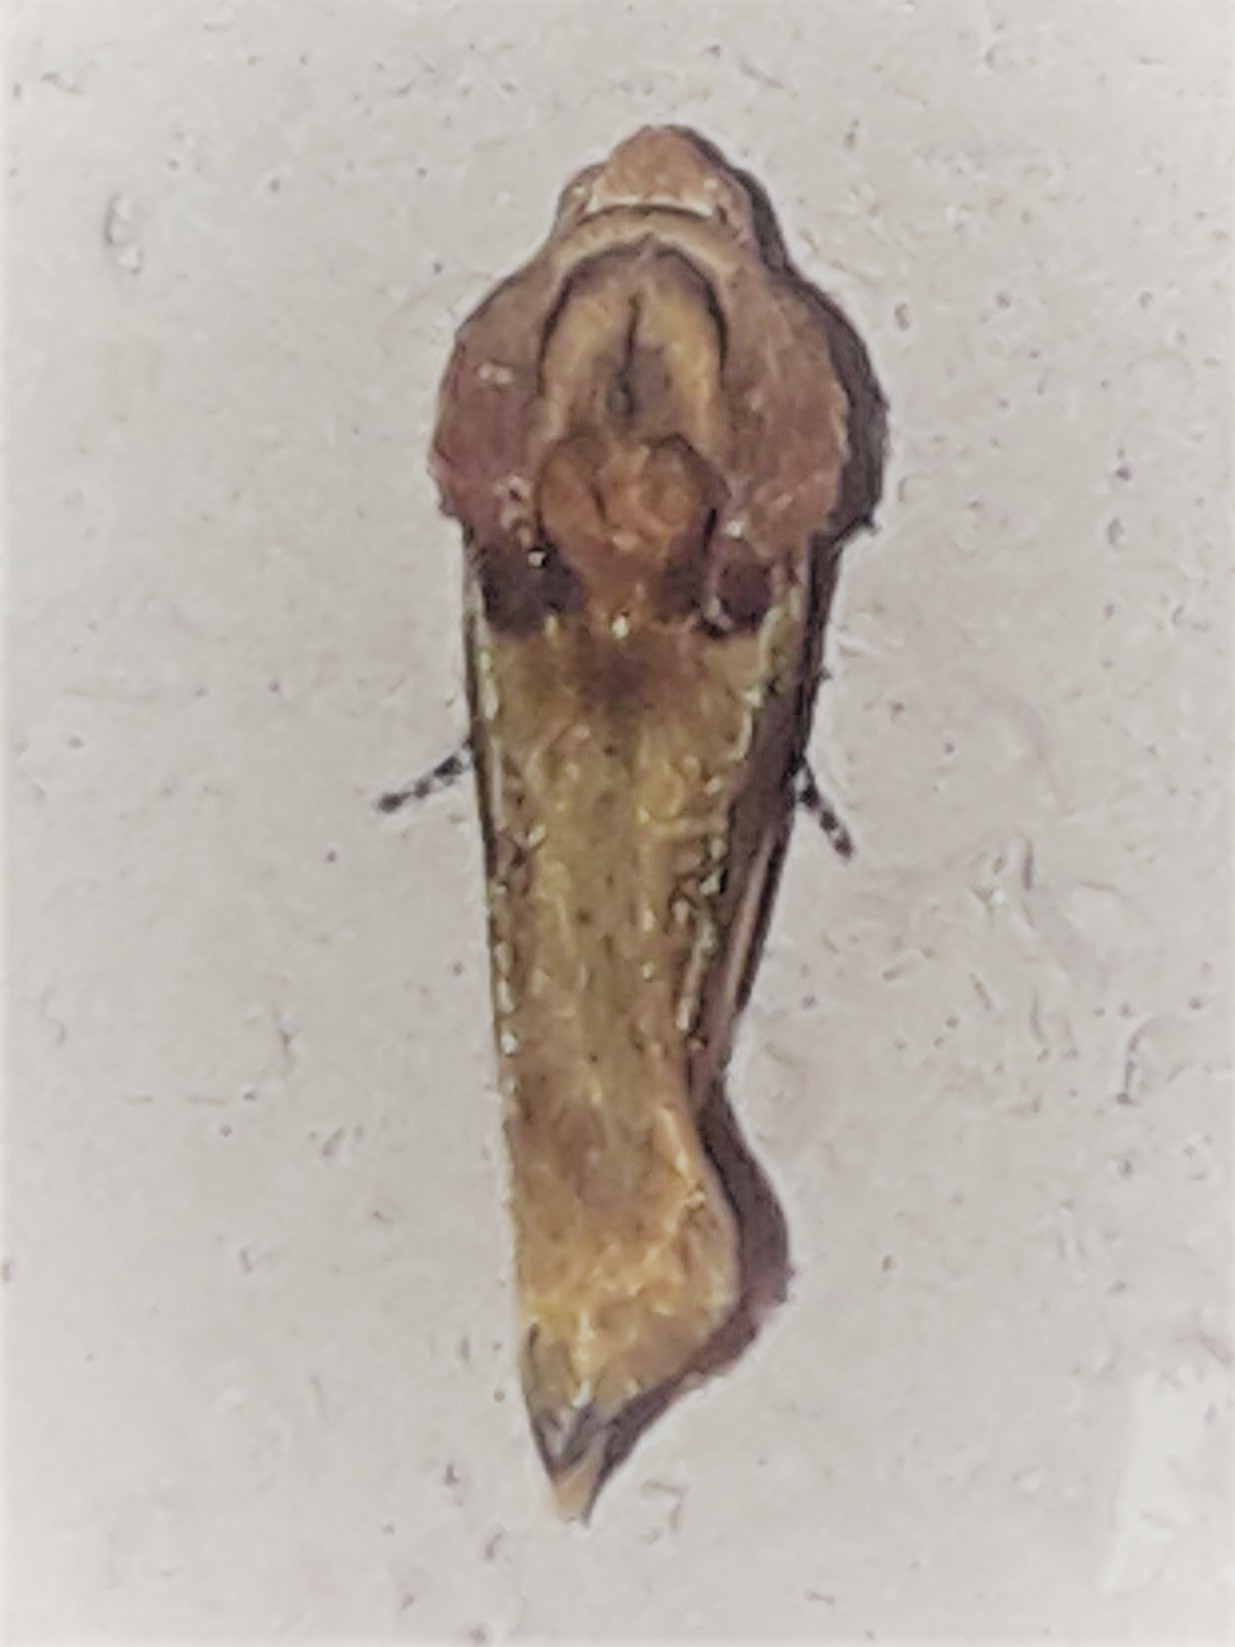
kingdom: Animalia
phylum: Arthropoda
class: Insecta
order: Lepidoptera
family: Noctuidae
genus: Spragueia
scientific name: Spragueia
